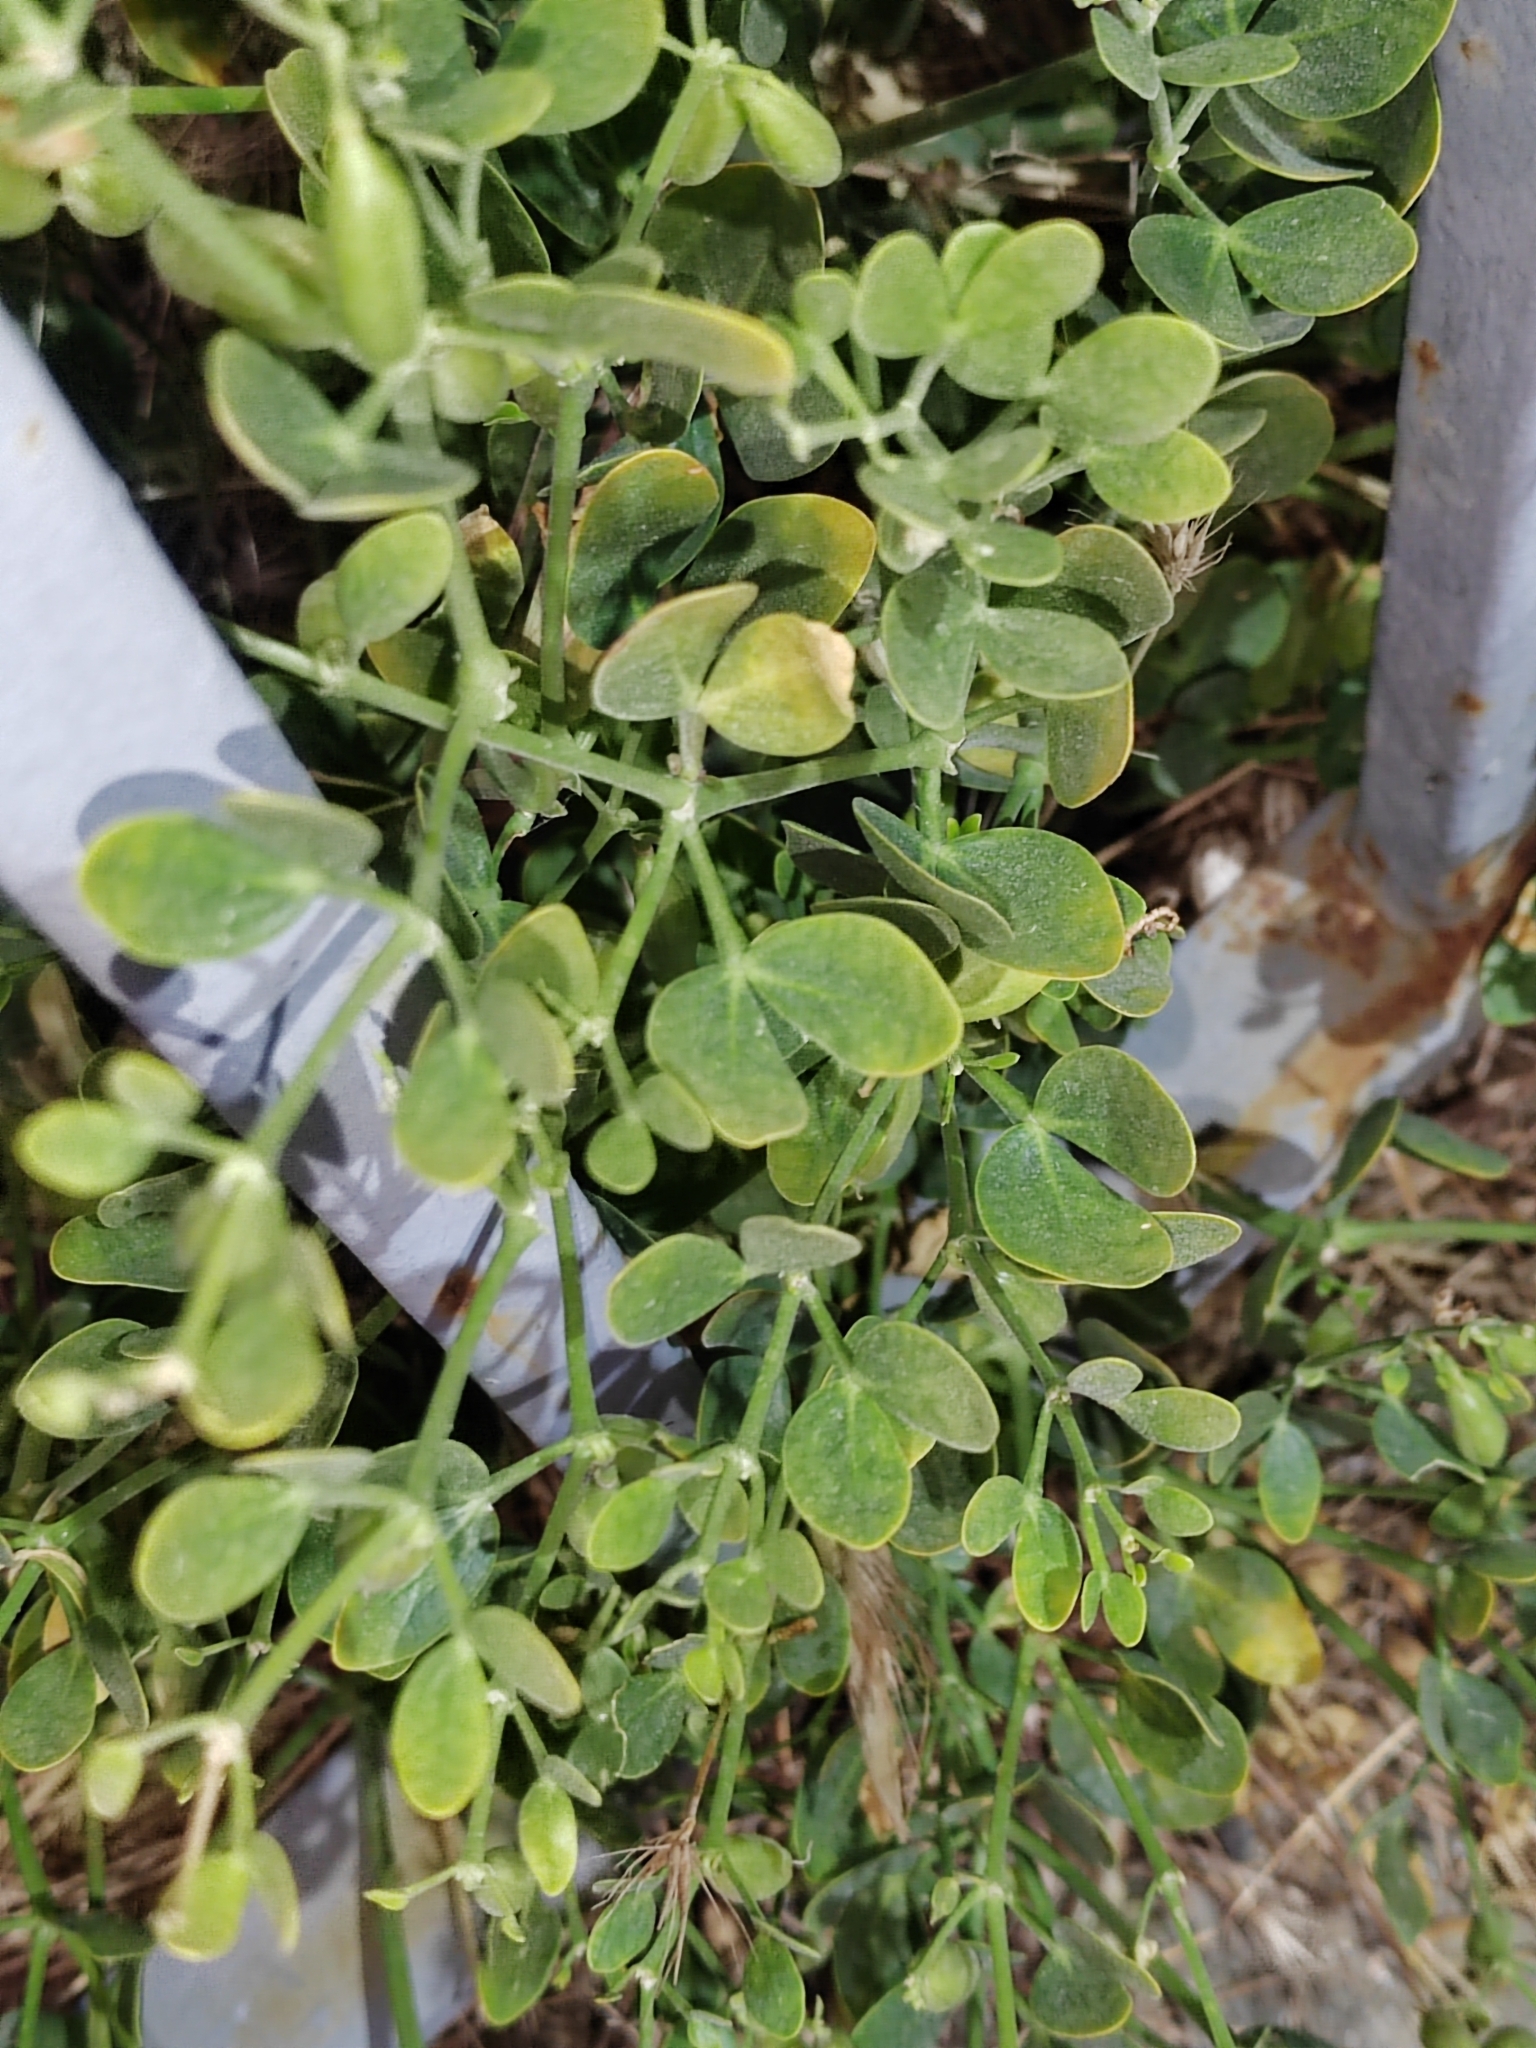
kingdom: Plantae
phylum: Tracheophyta
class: Magnoliopsida
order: Zygophyllales
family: Zygophyllaceae
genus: Zygophyllum
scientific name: Zygophyllum fabago
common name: Syrian beancaper
